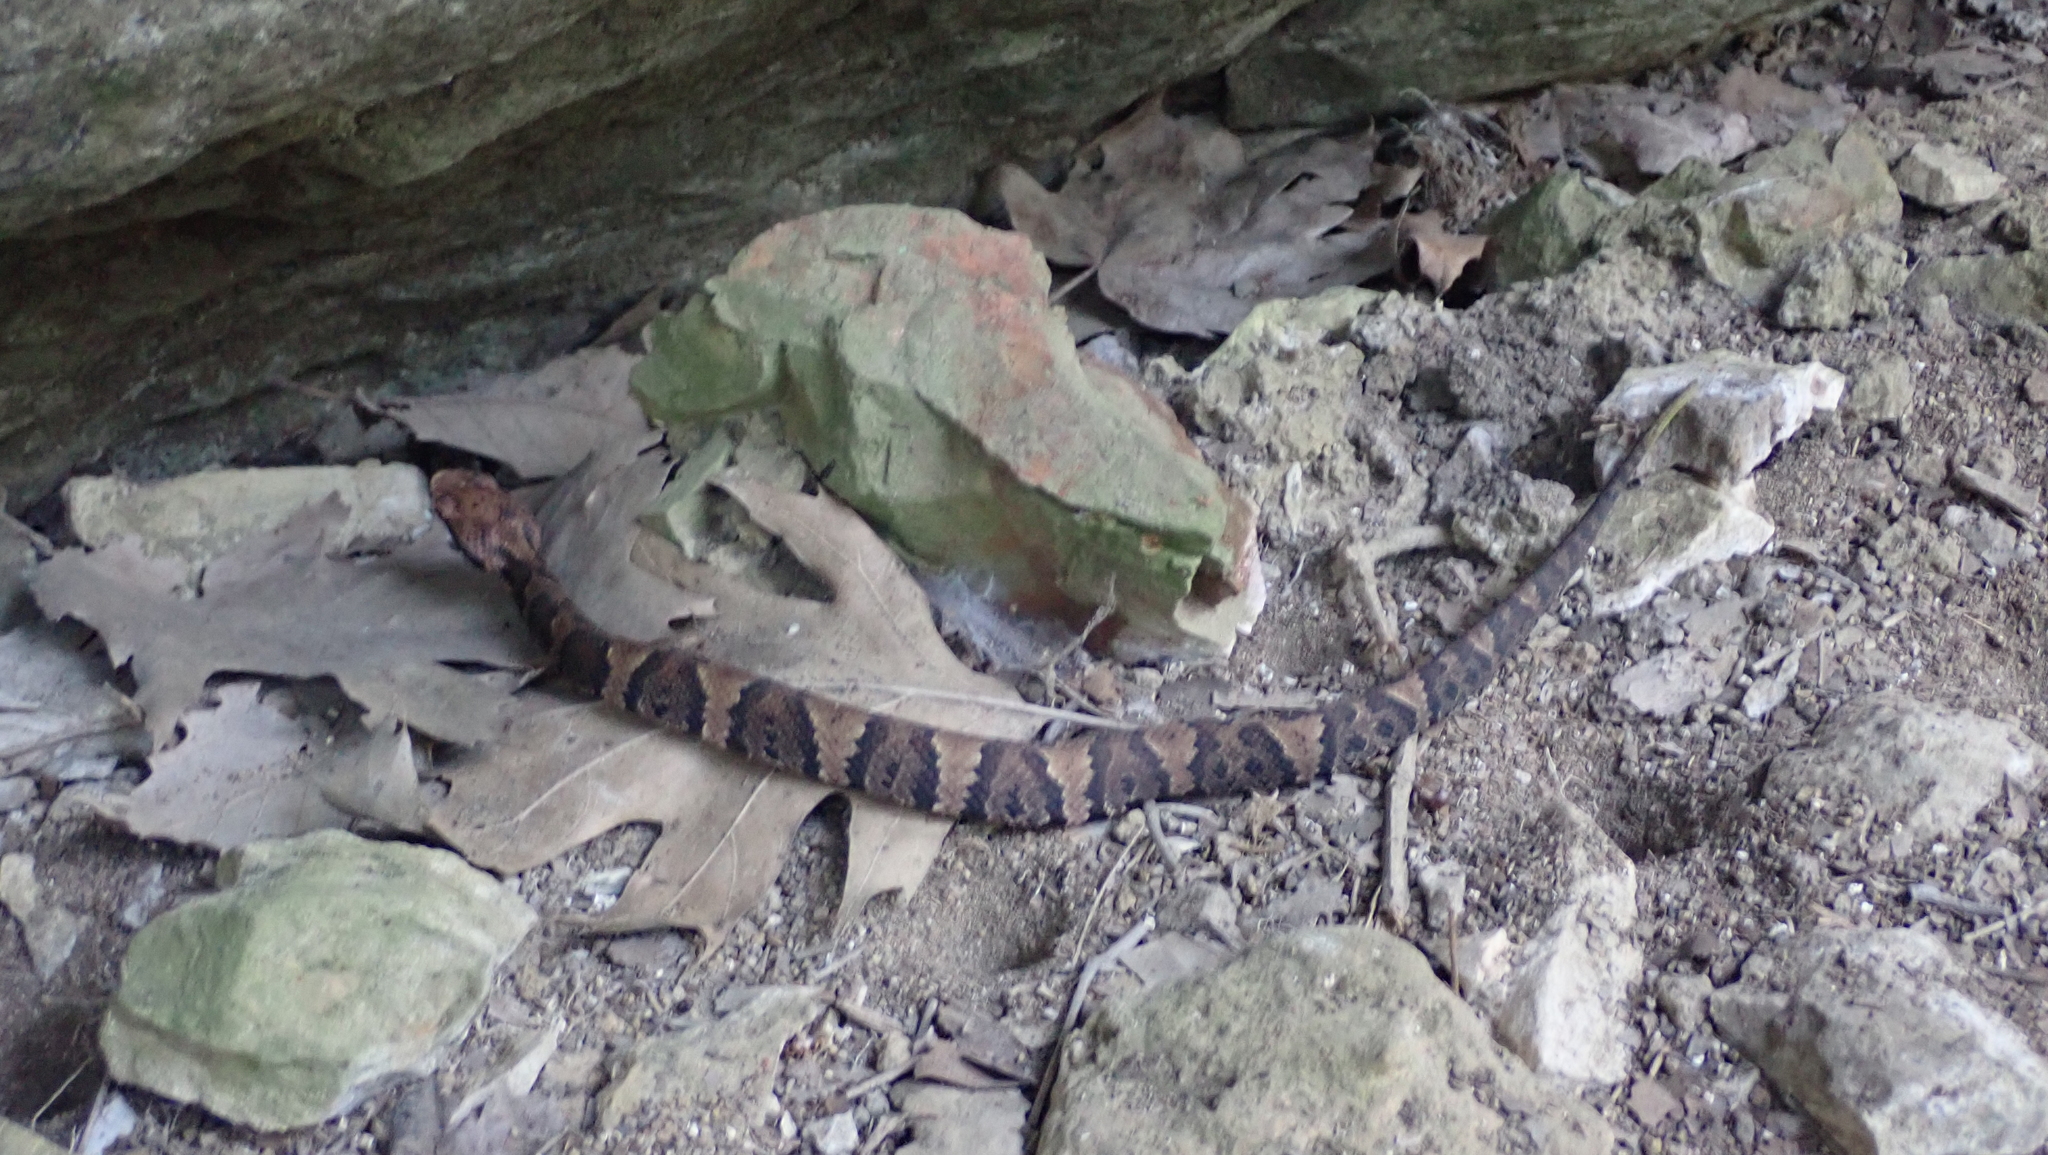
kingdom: Animalia
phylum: Chordata
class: Squamata
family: Viperidae
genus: Agkistrodon
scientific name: Agkistrodon piscivorus
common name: Cottonmouth
